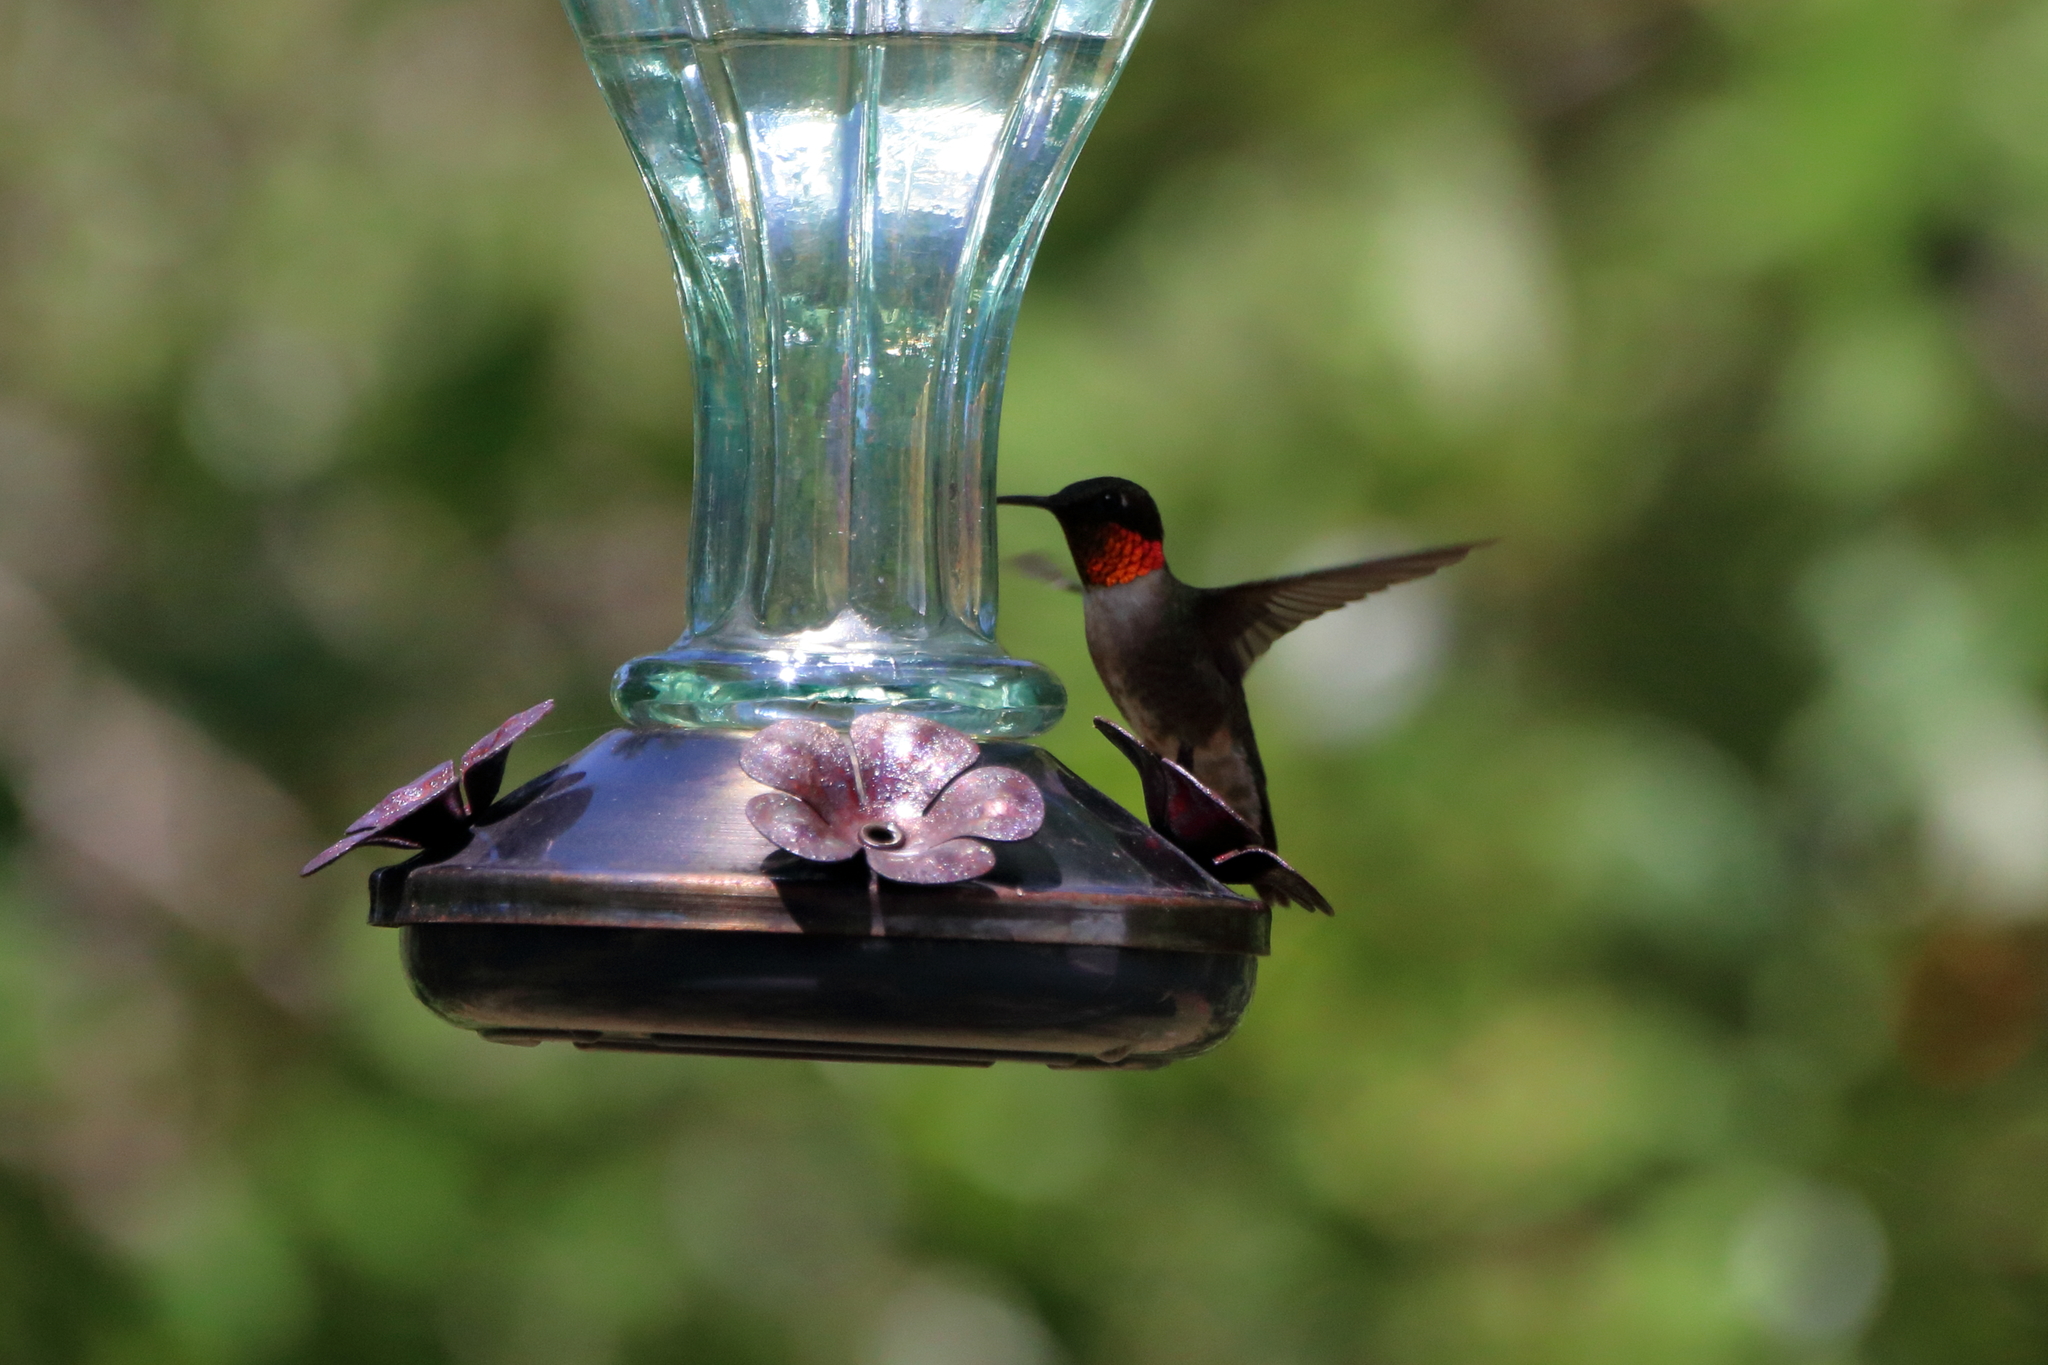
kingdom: Animalia
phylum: Chordata
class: Aves
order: Apodiformes
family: Trochilidae
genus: Archilochus
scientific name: Archilochus colubris
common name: Ruby-throated hummingbird
